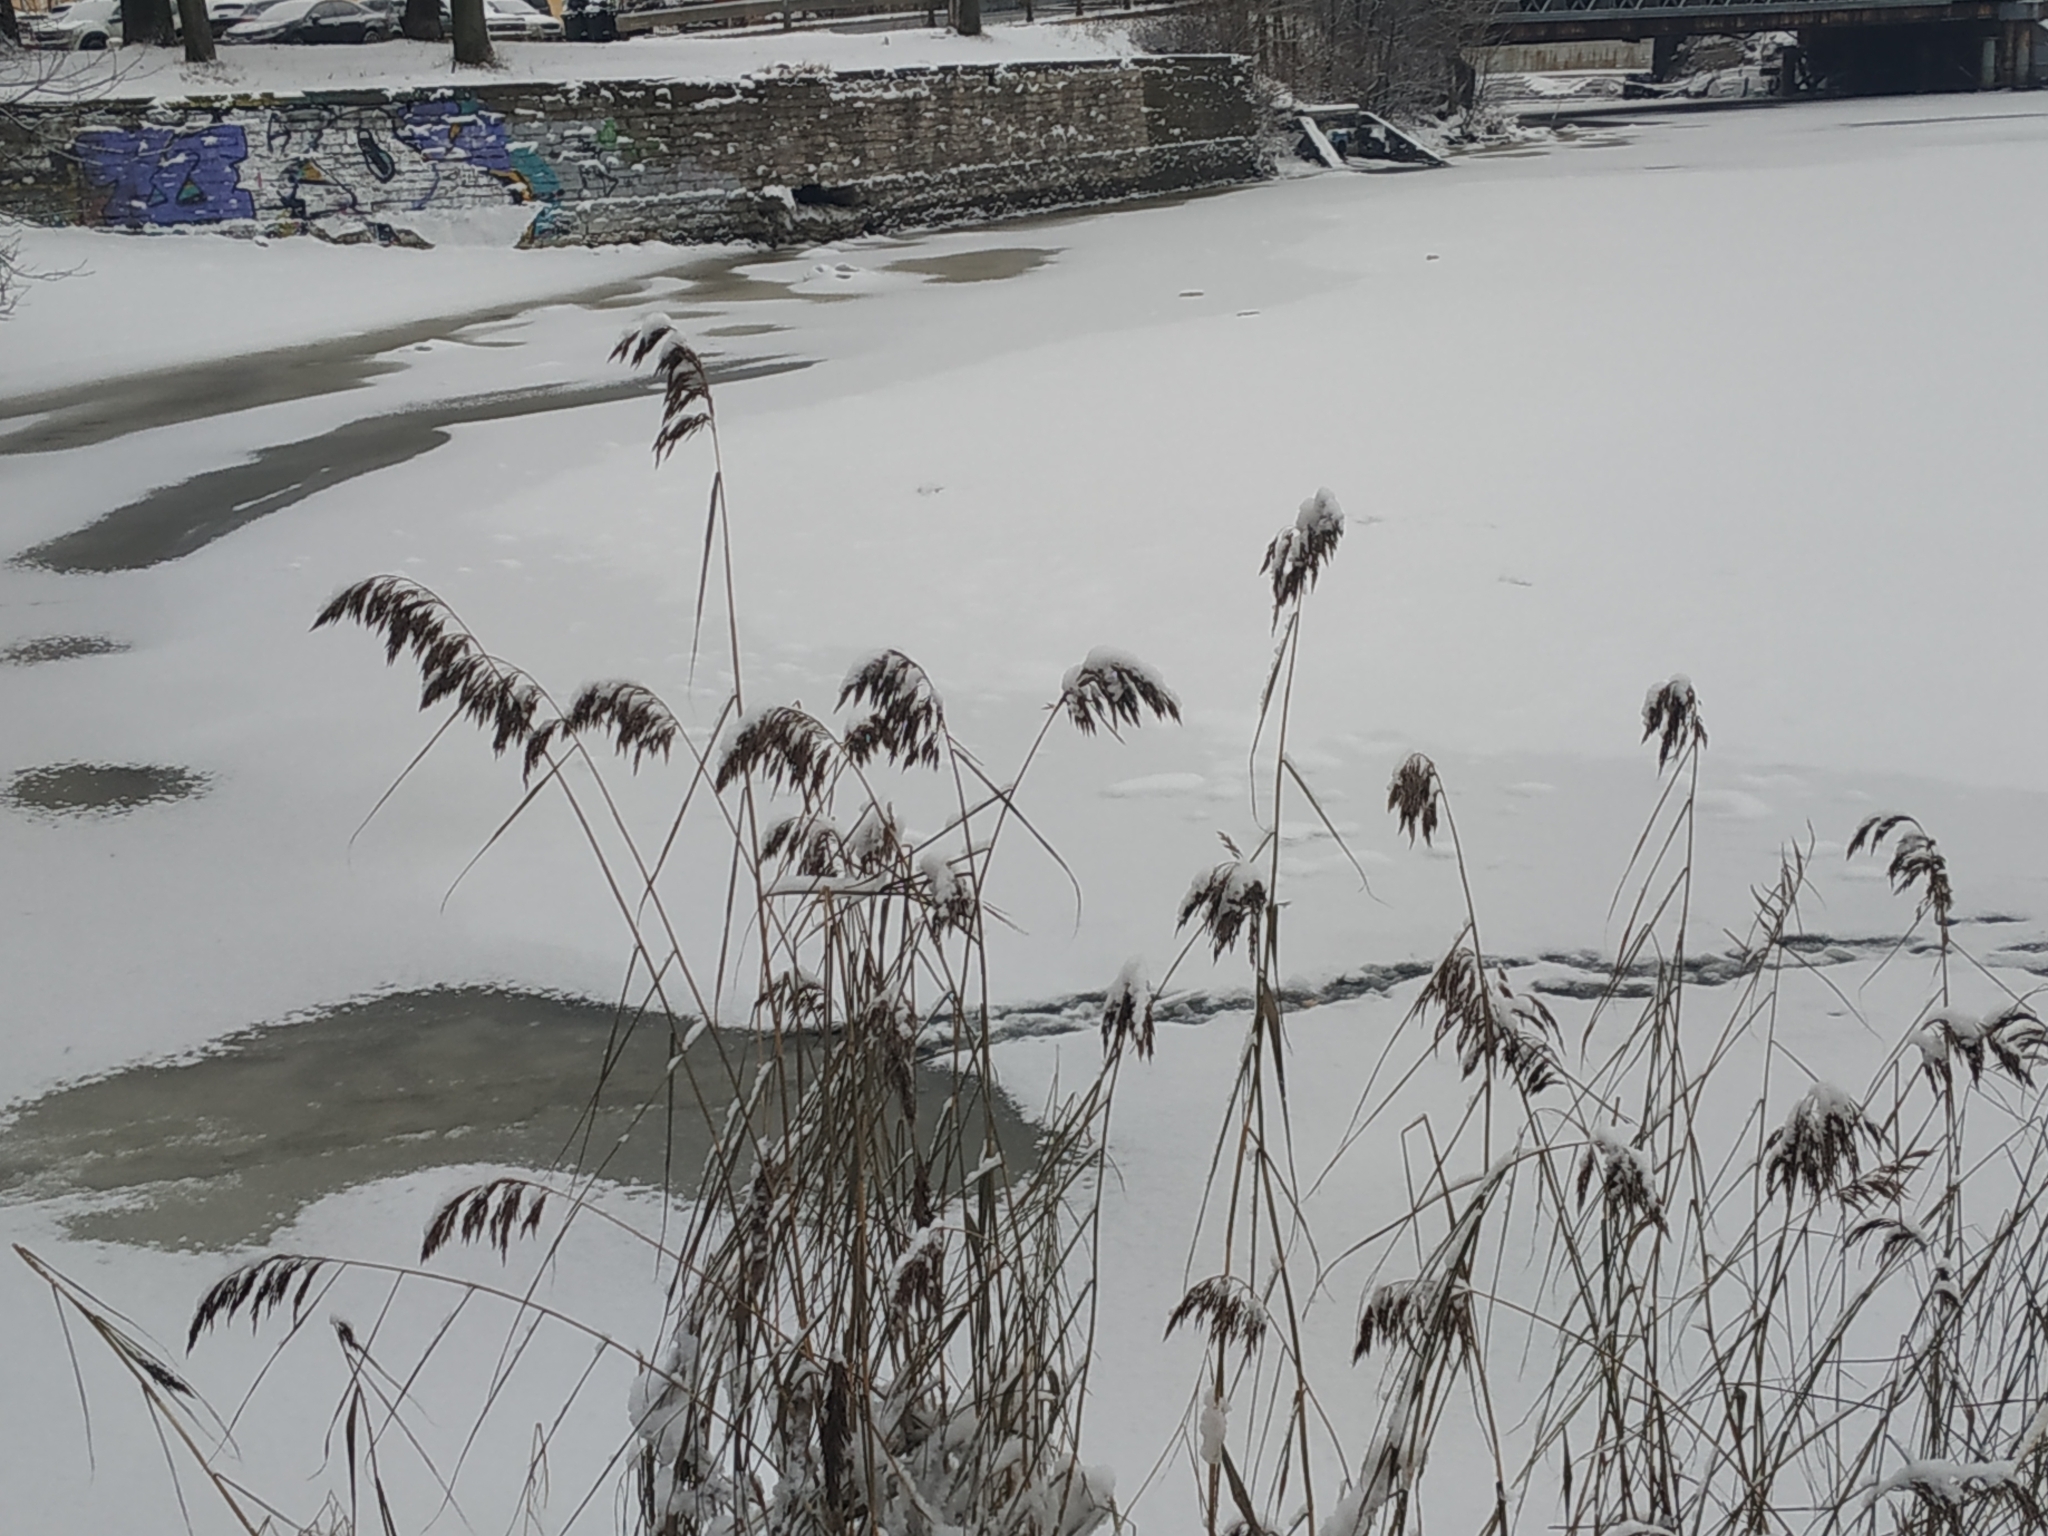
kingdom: Plantae
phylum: Tracheophyta
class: Liliopsida
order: Poales
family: Poaceae
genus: Phragmites
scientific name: Phragmites australis
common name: Common reed
